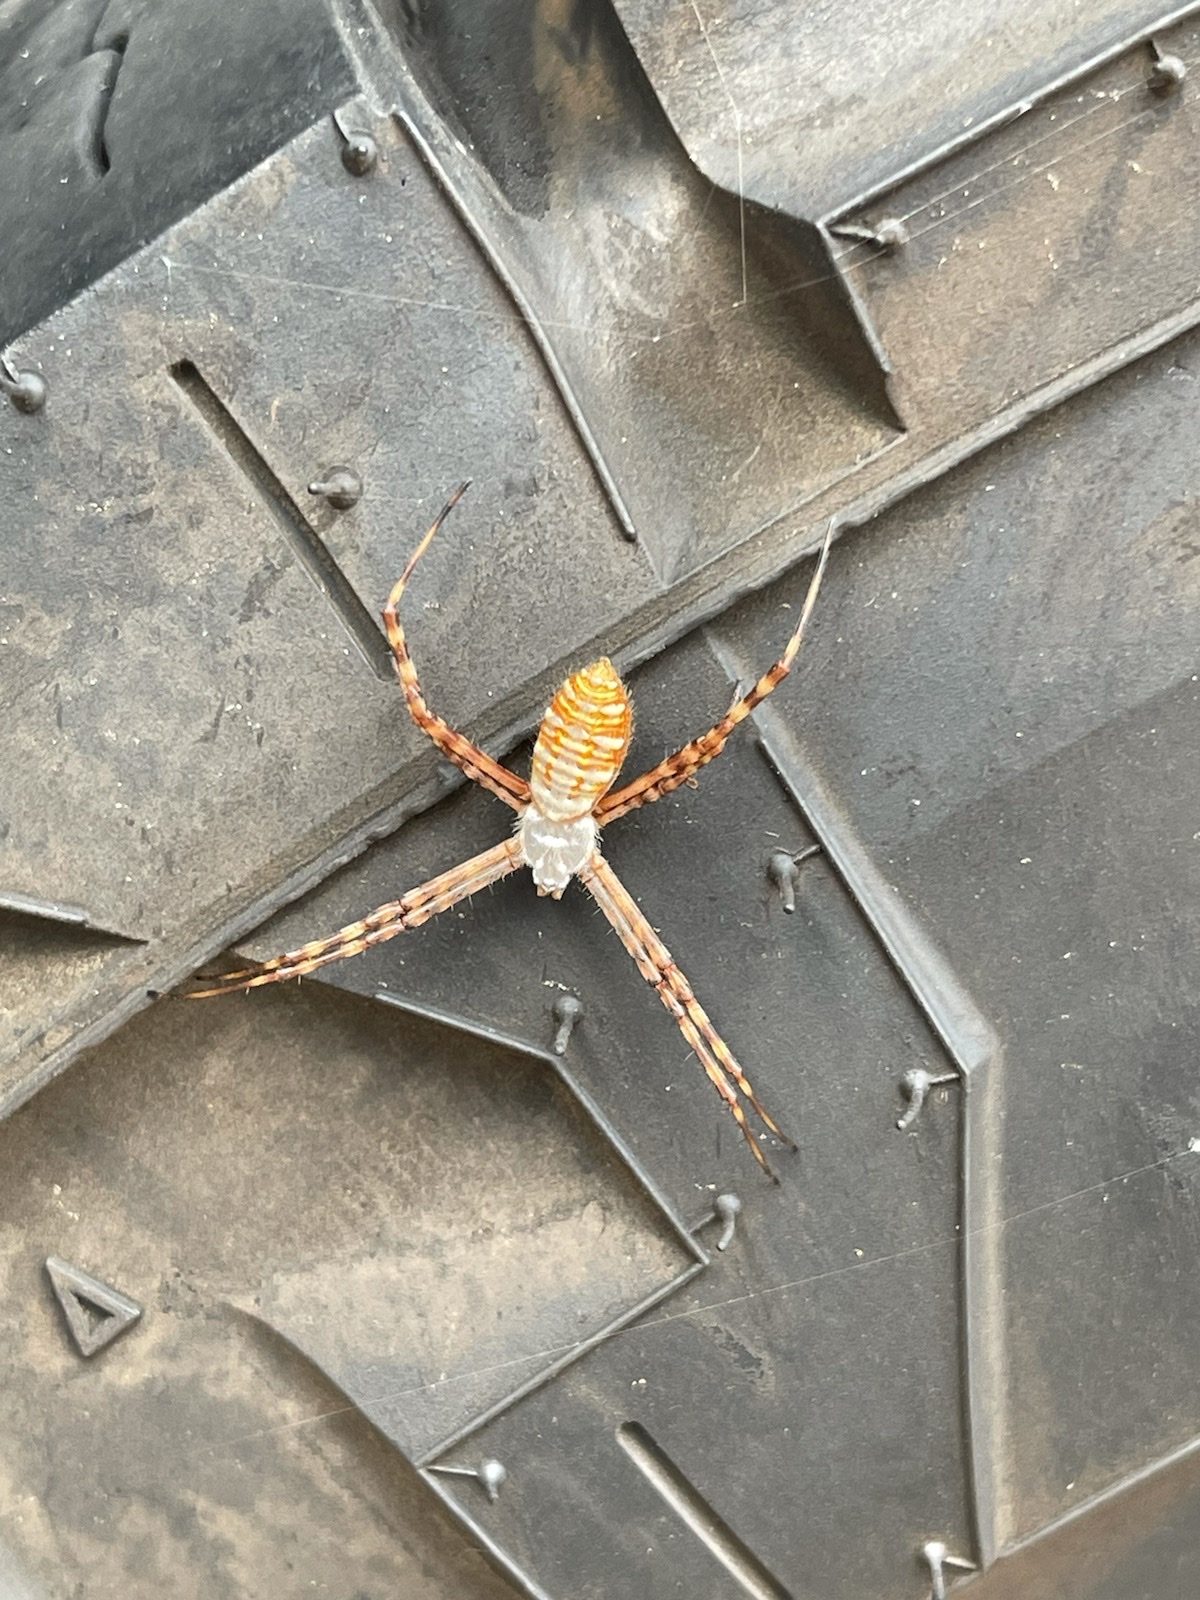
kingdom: Animalia
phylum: Arthropoda
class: Arachnida
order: Araneae
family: Araneidae
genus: Argiope
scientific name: Argiope trifasciata
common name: Banded garden spider
